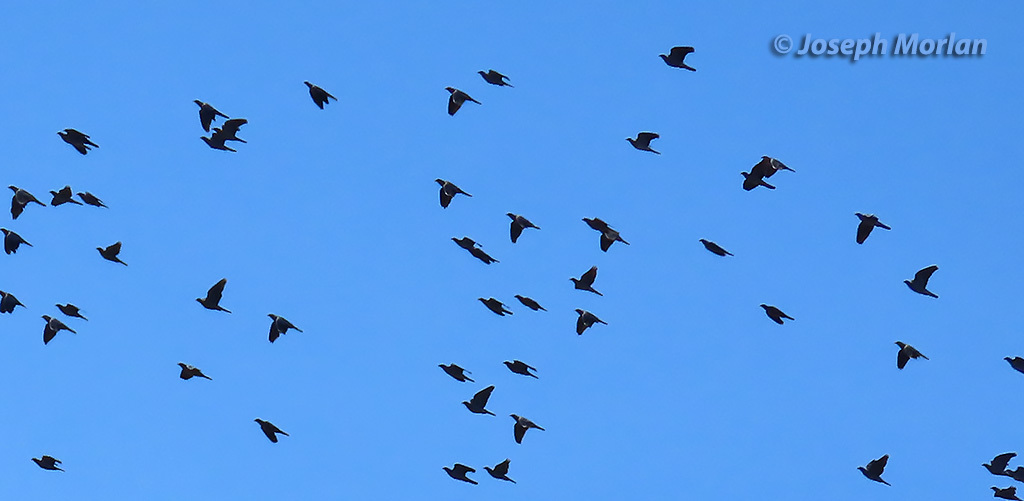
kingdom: Animalia
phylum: Chordata
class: Aves
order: Columbiformes
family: Columbidae
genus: Patagioenas
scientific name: Patagioenas fasciata
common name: Band-tailed pigeon
